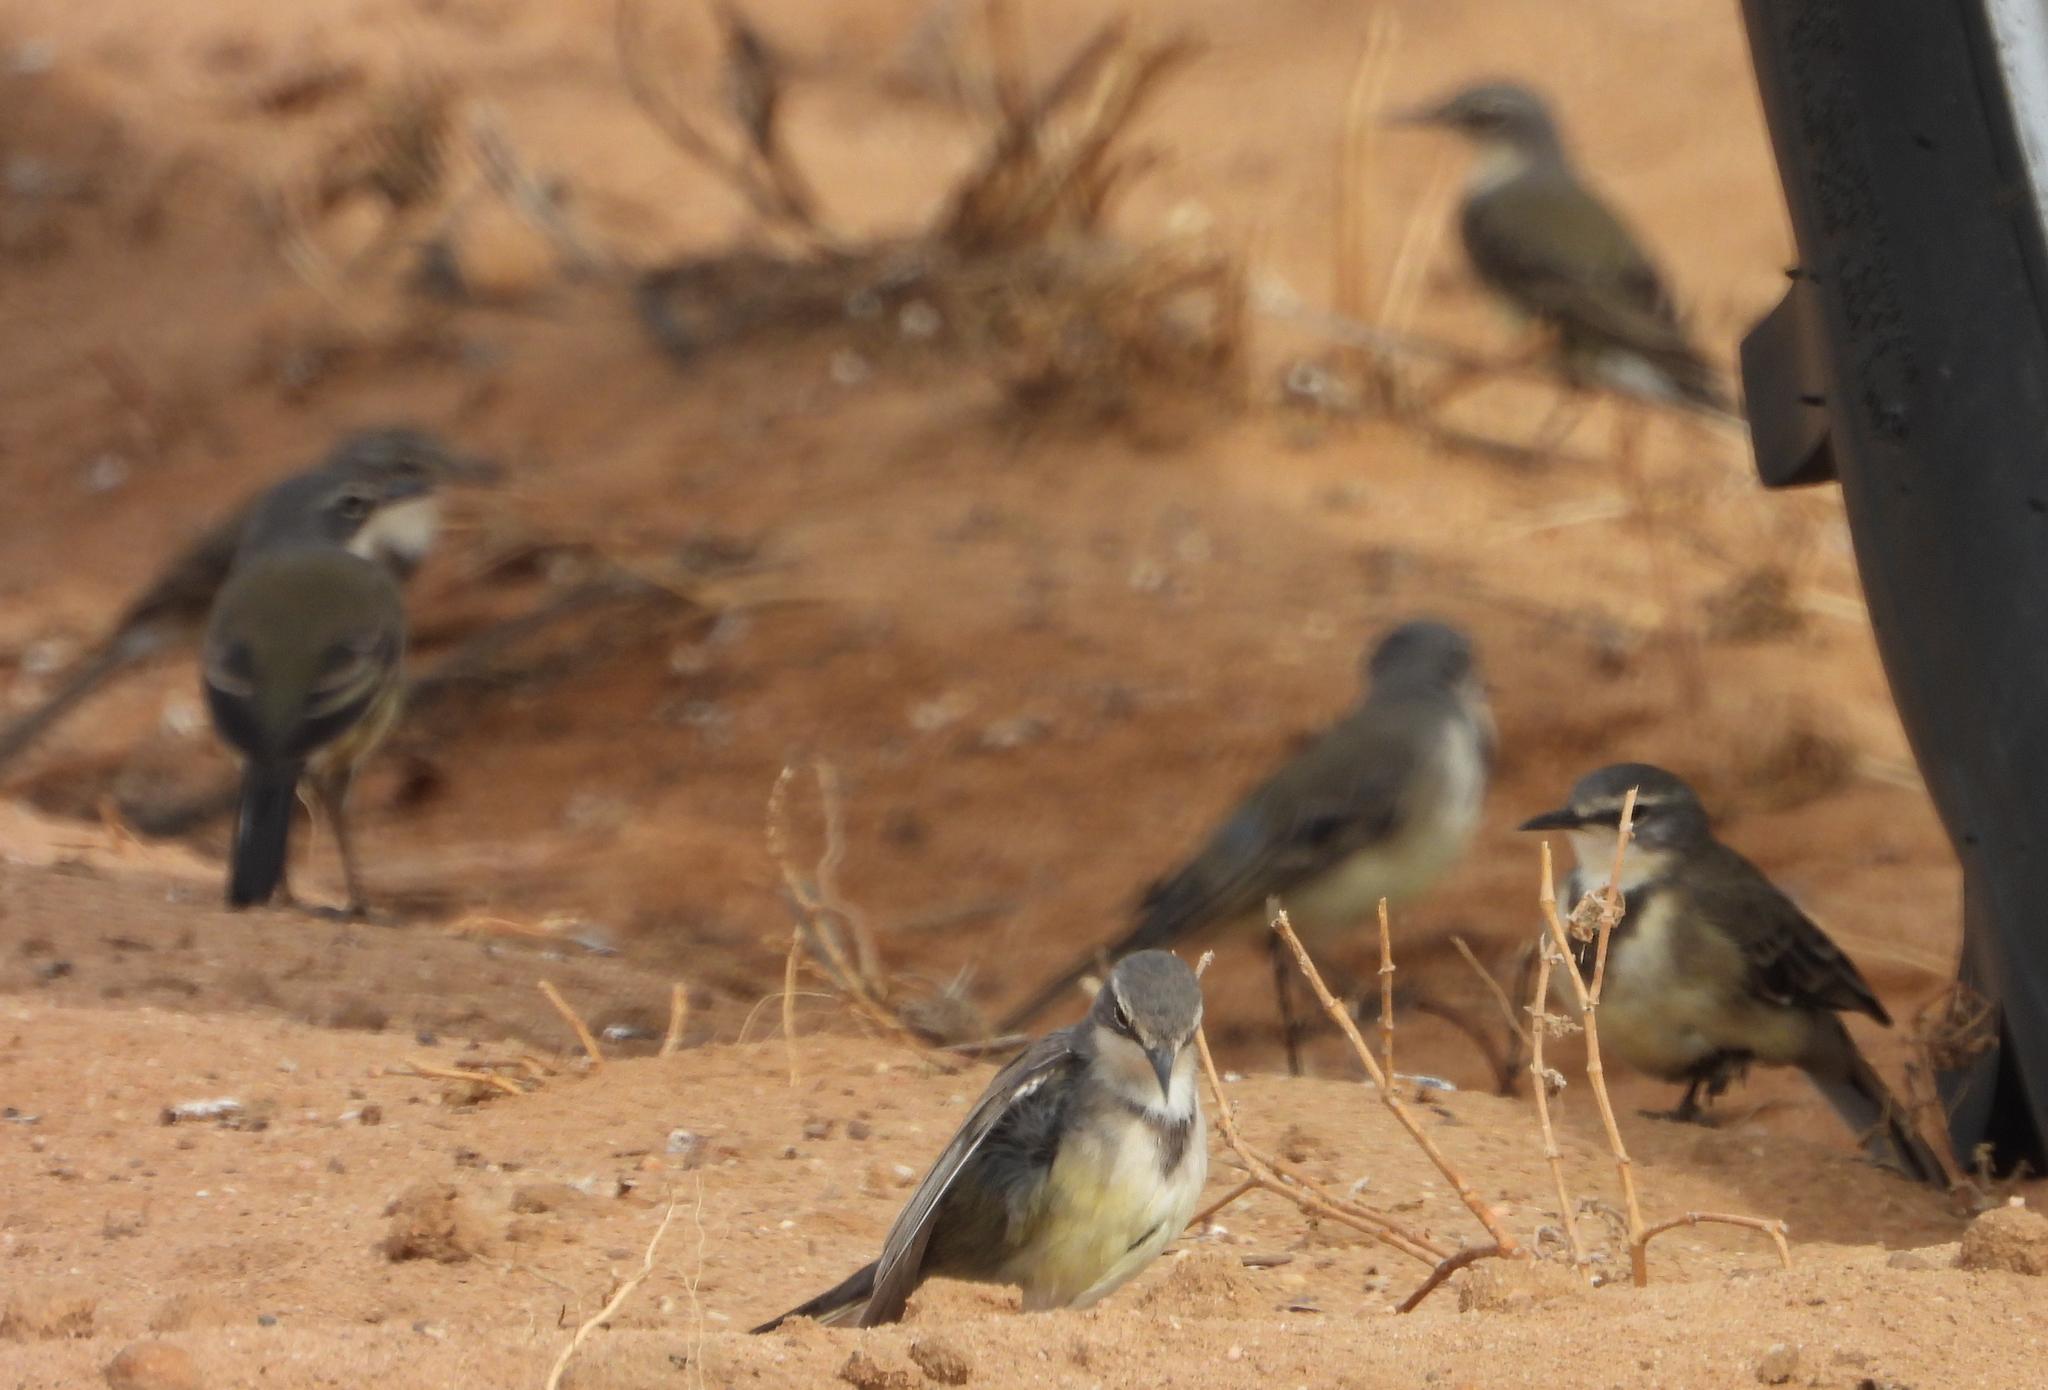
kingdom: Animalia
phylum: Chordata
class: Aves
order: Passeriformes
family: Motacillidae
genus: Motacilla
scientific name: Motacilla capensis
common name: Cape wagtail
